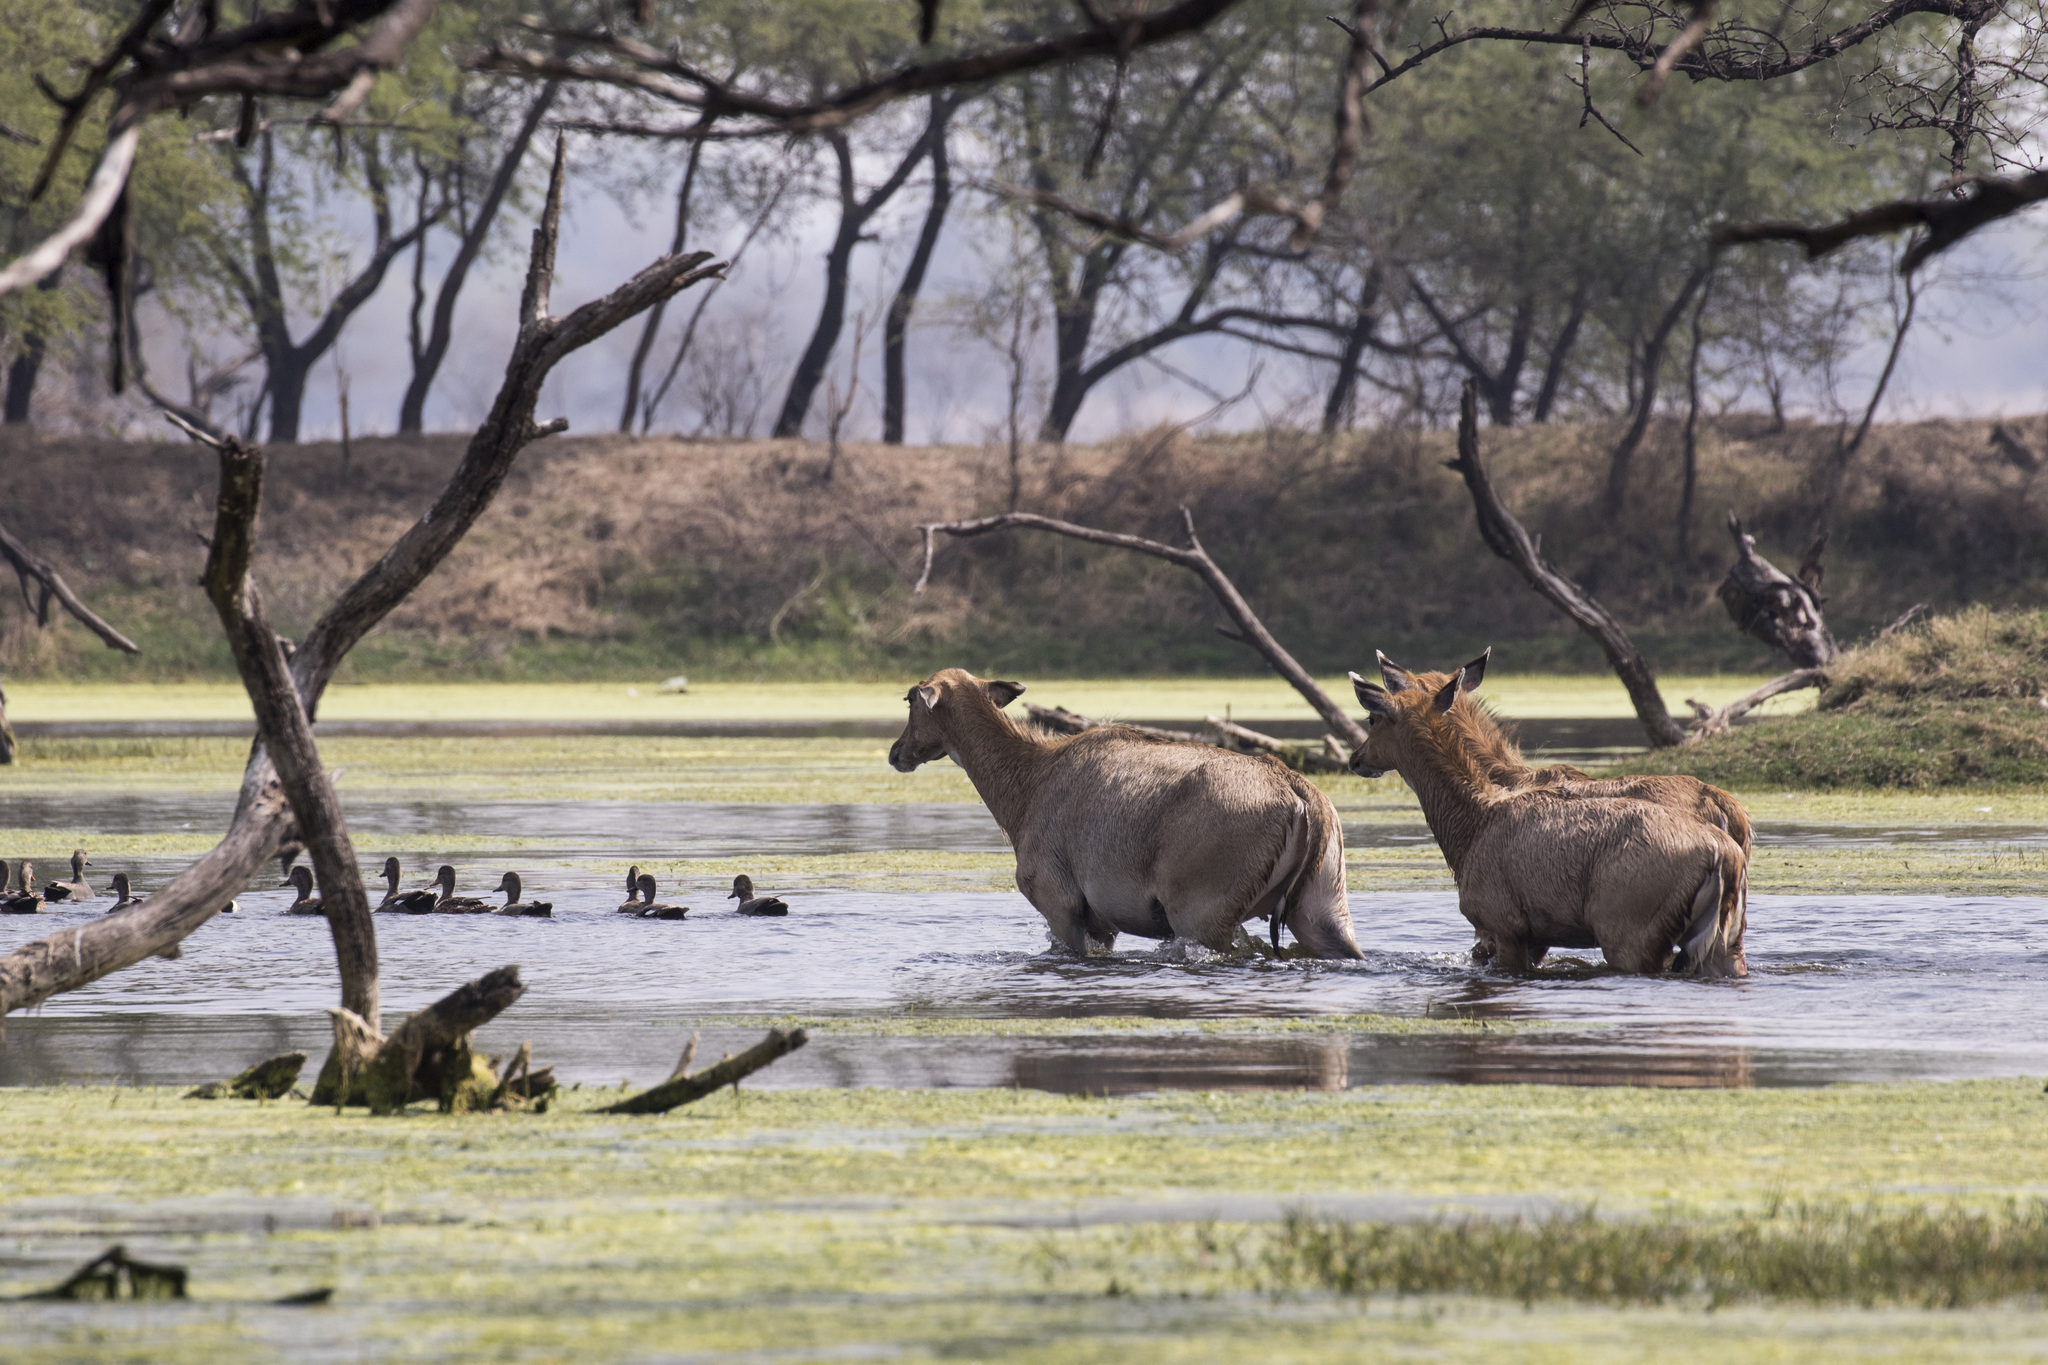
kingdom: Animalia
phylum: Chordata
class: Mammalia
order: Artiodactyla
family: Bovidae
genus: Boselaphus
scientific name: Boselaphus tragocamelus
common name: Nilgai
